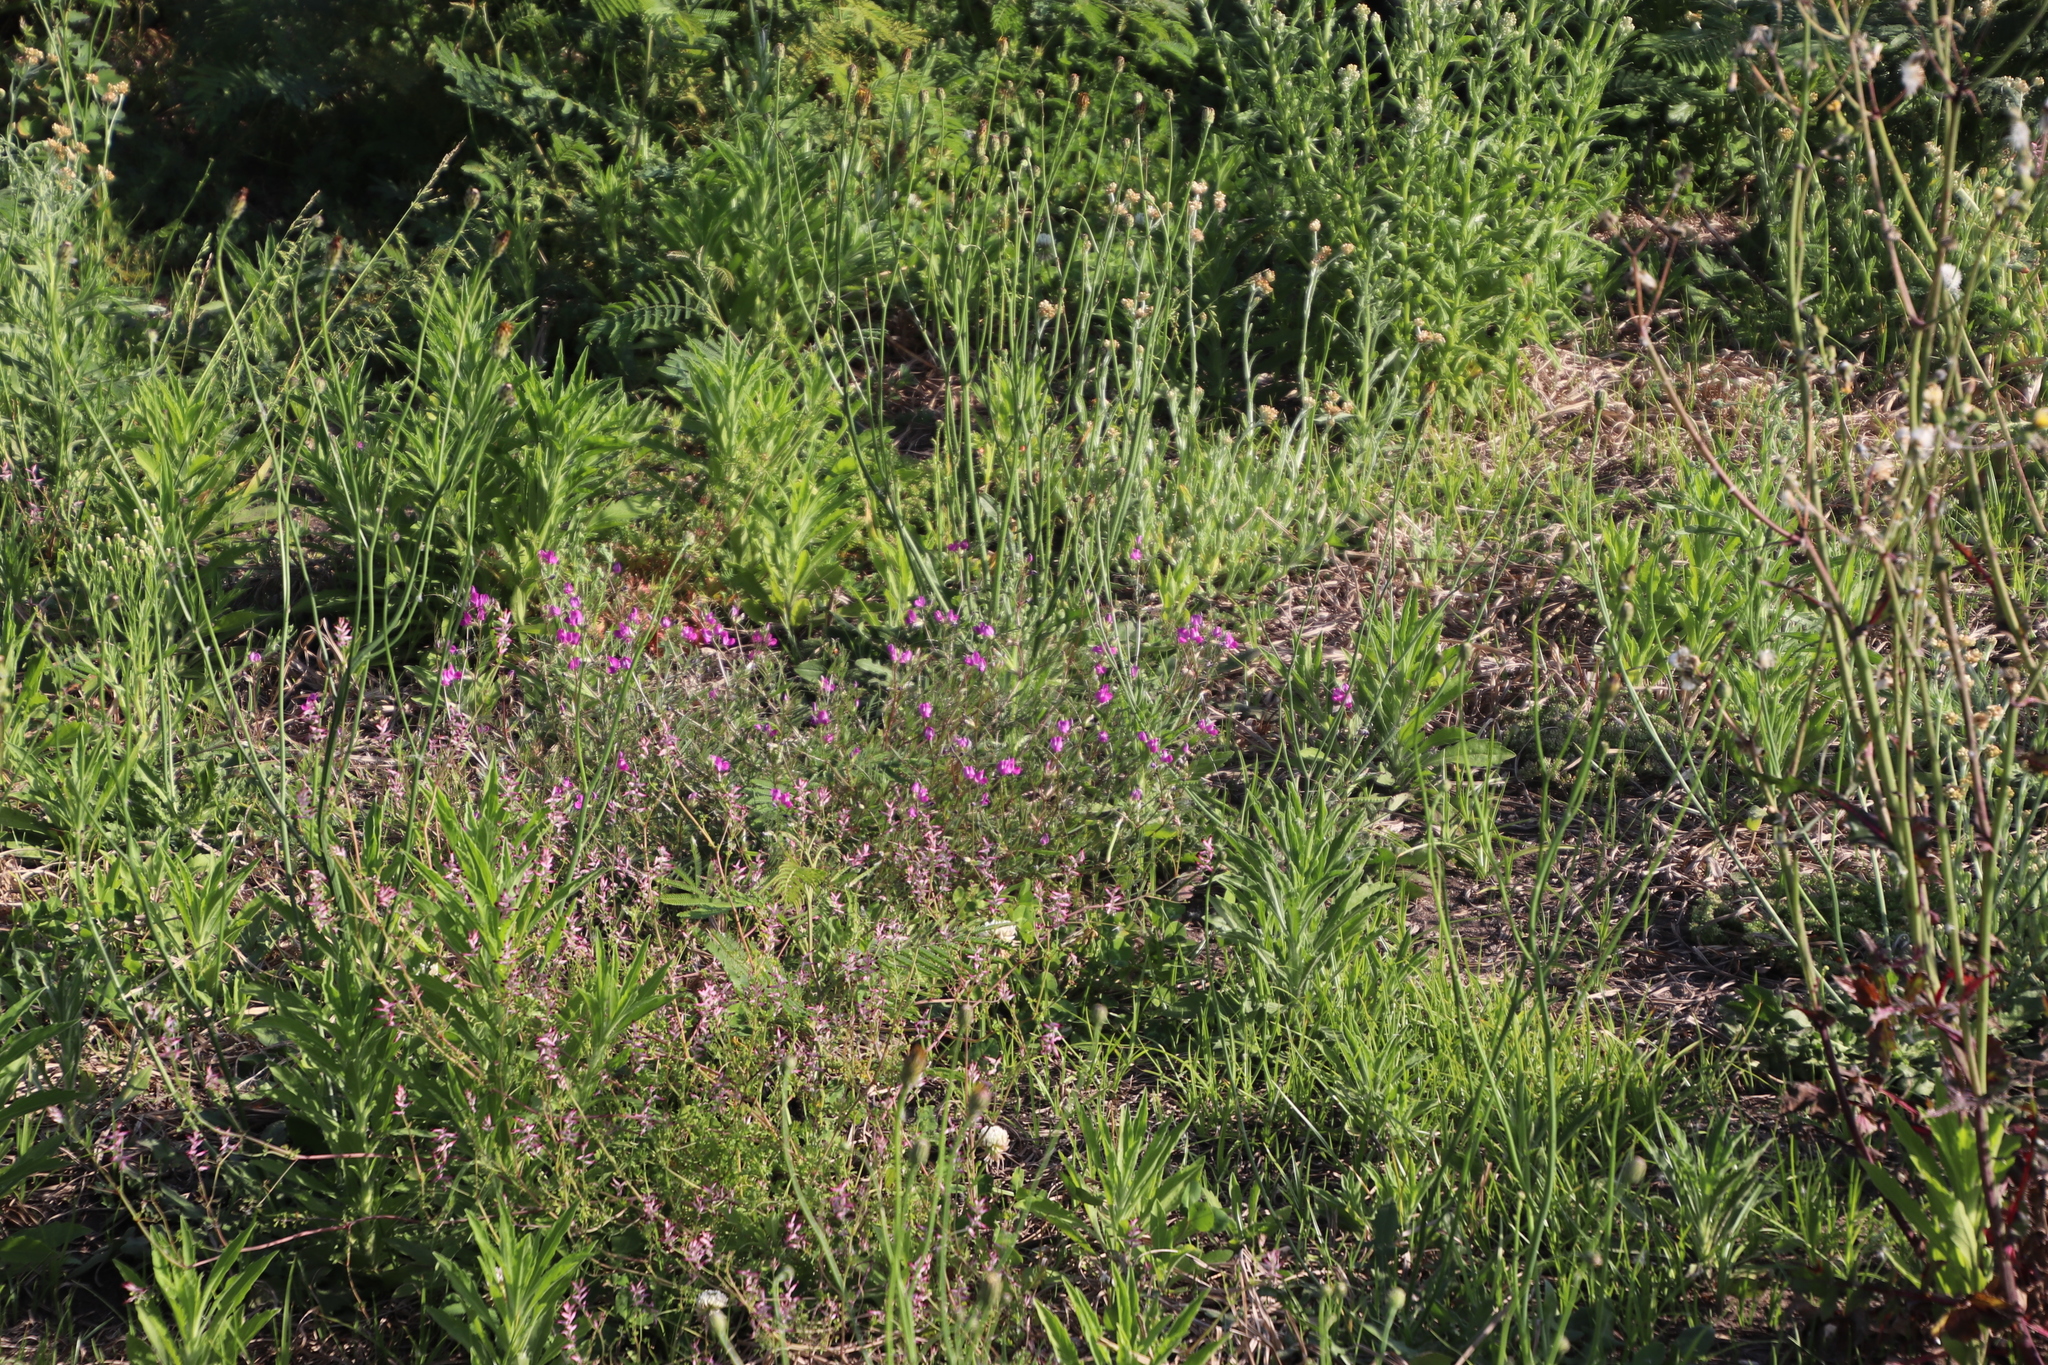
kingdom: Plantae
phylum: Tracheophyta
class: Magnoliopsida
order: Fabales
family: Fabaceae
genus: Vicia
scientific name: Vicia sativa
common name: Garden vetch
